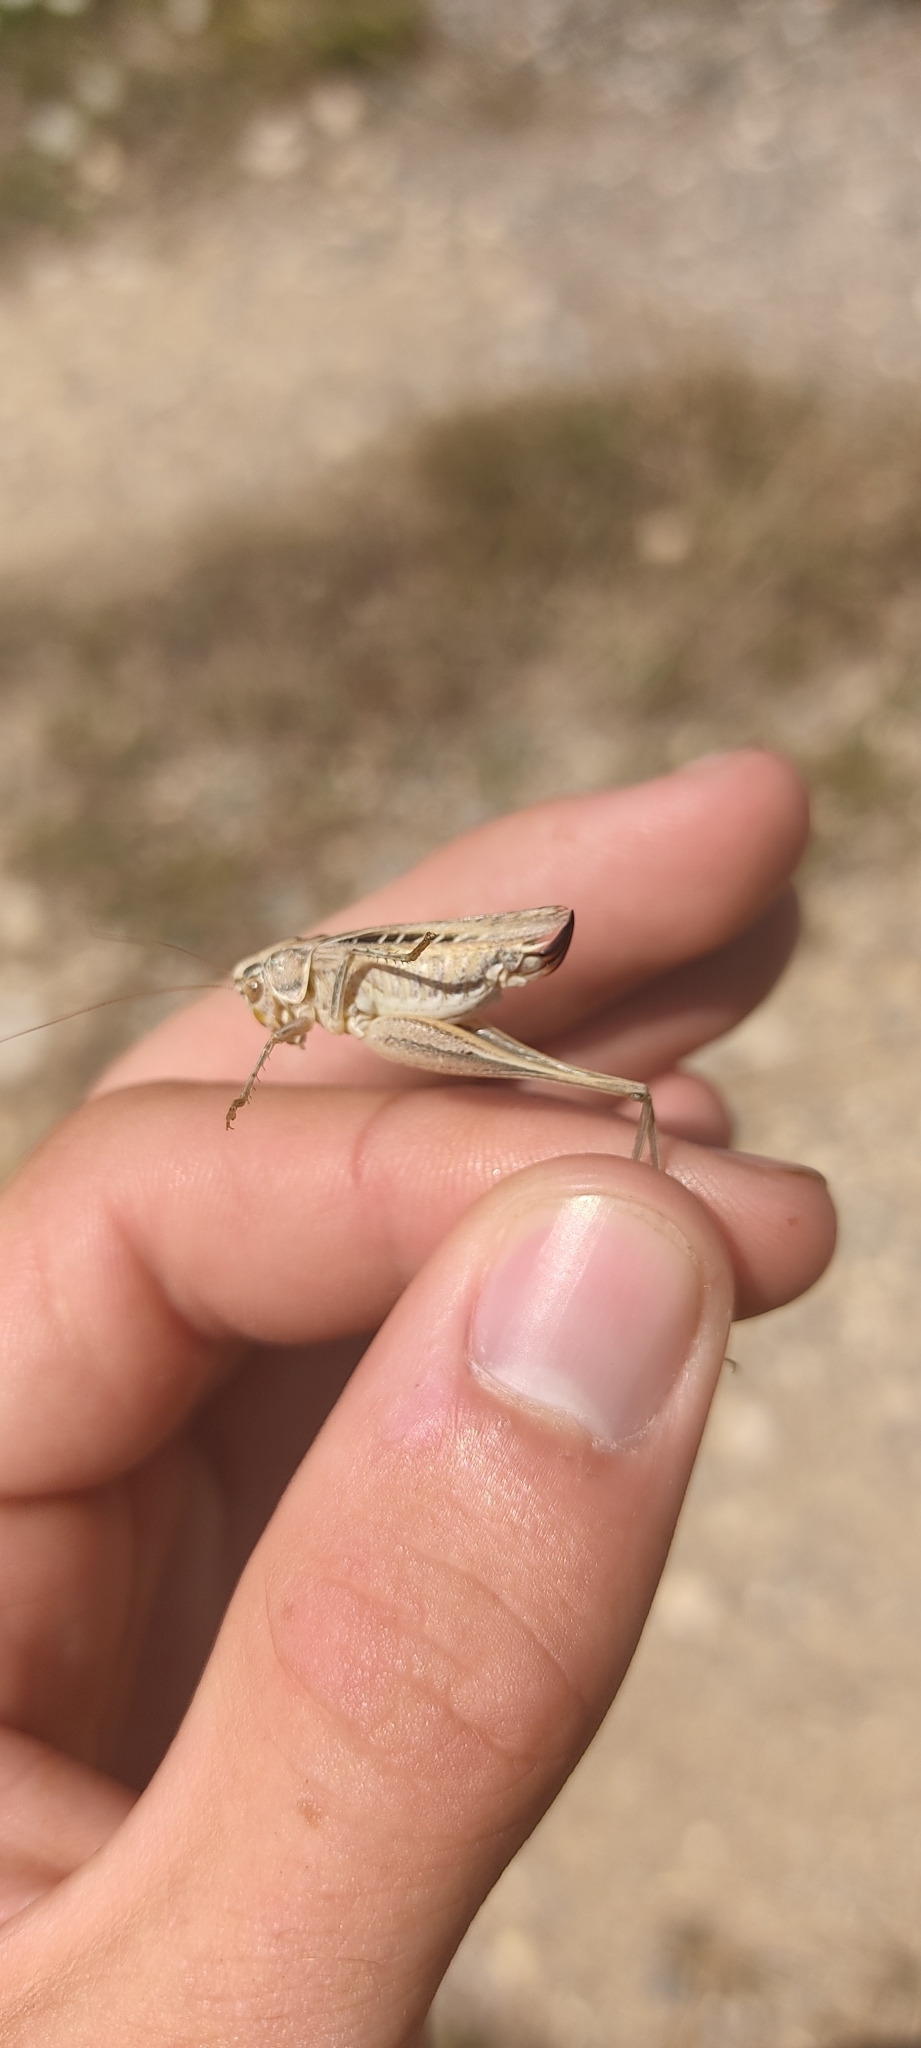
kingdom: Animalia
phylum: Arthropoda
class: Insecta
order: Orthoptera
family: Tettigoniidae
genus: Tessellana
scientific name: Tessellana tessellata
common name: Grasshopper
